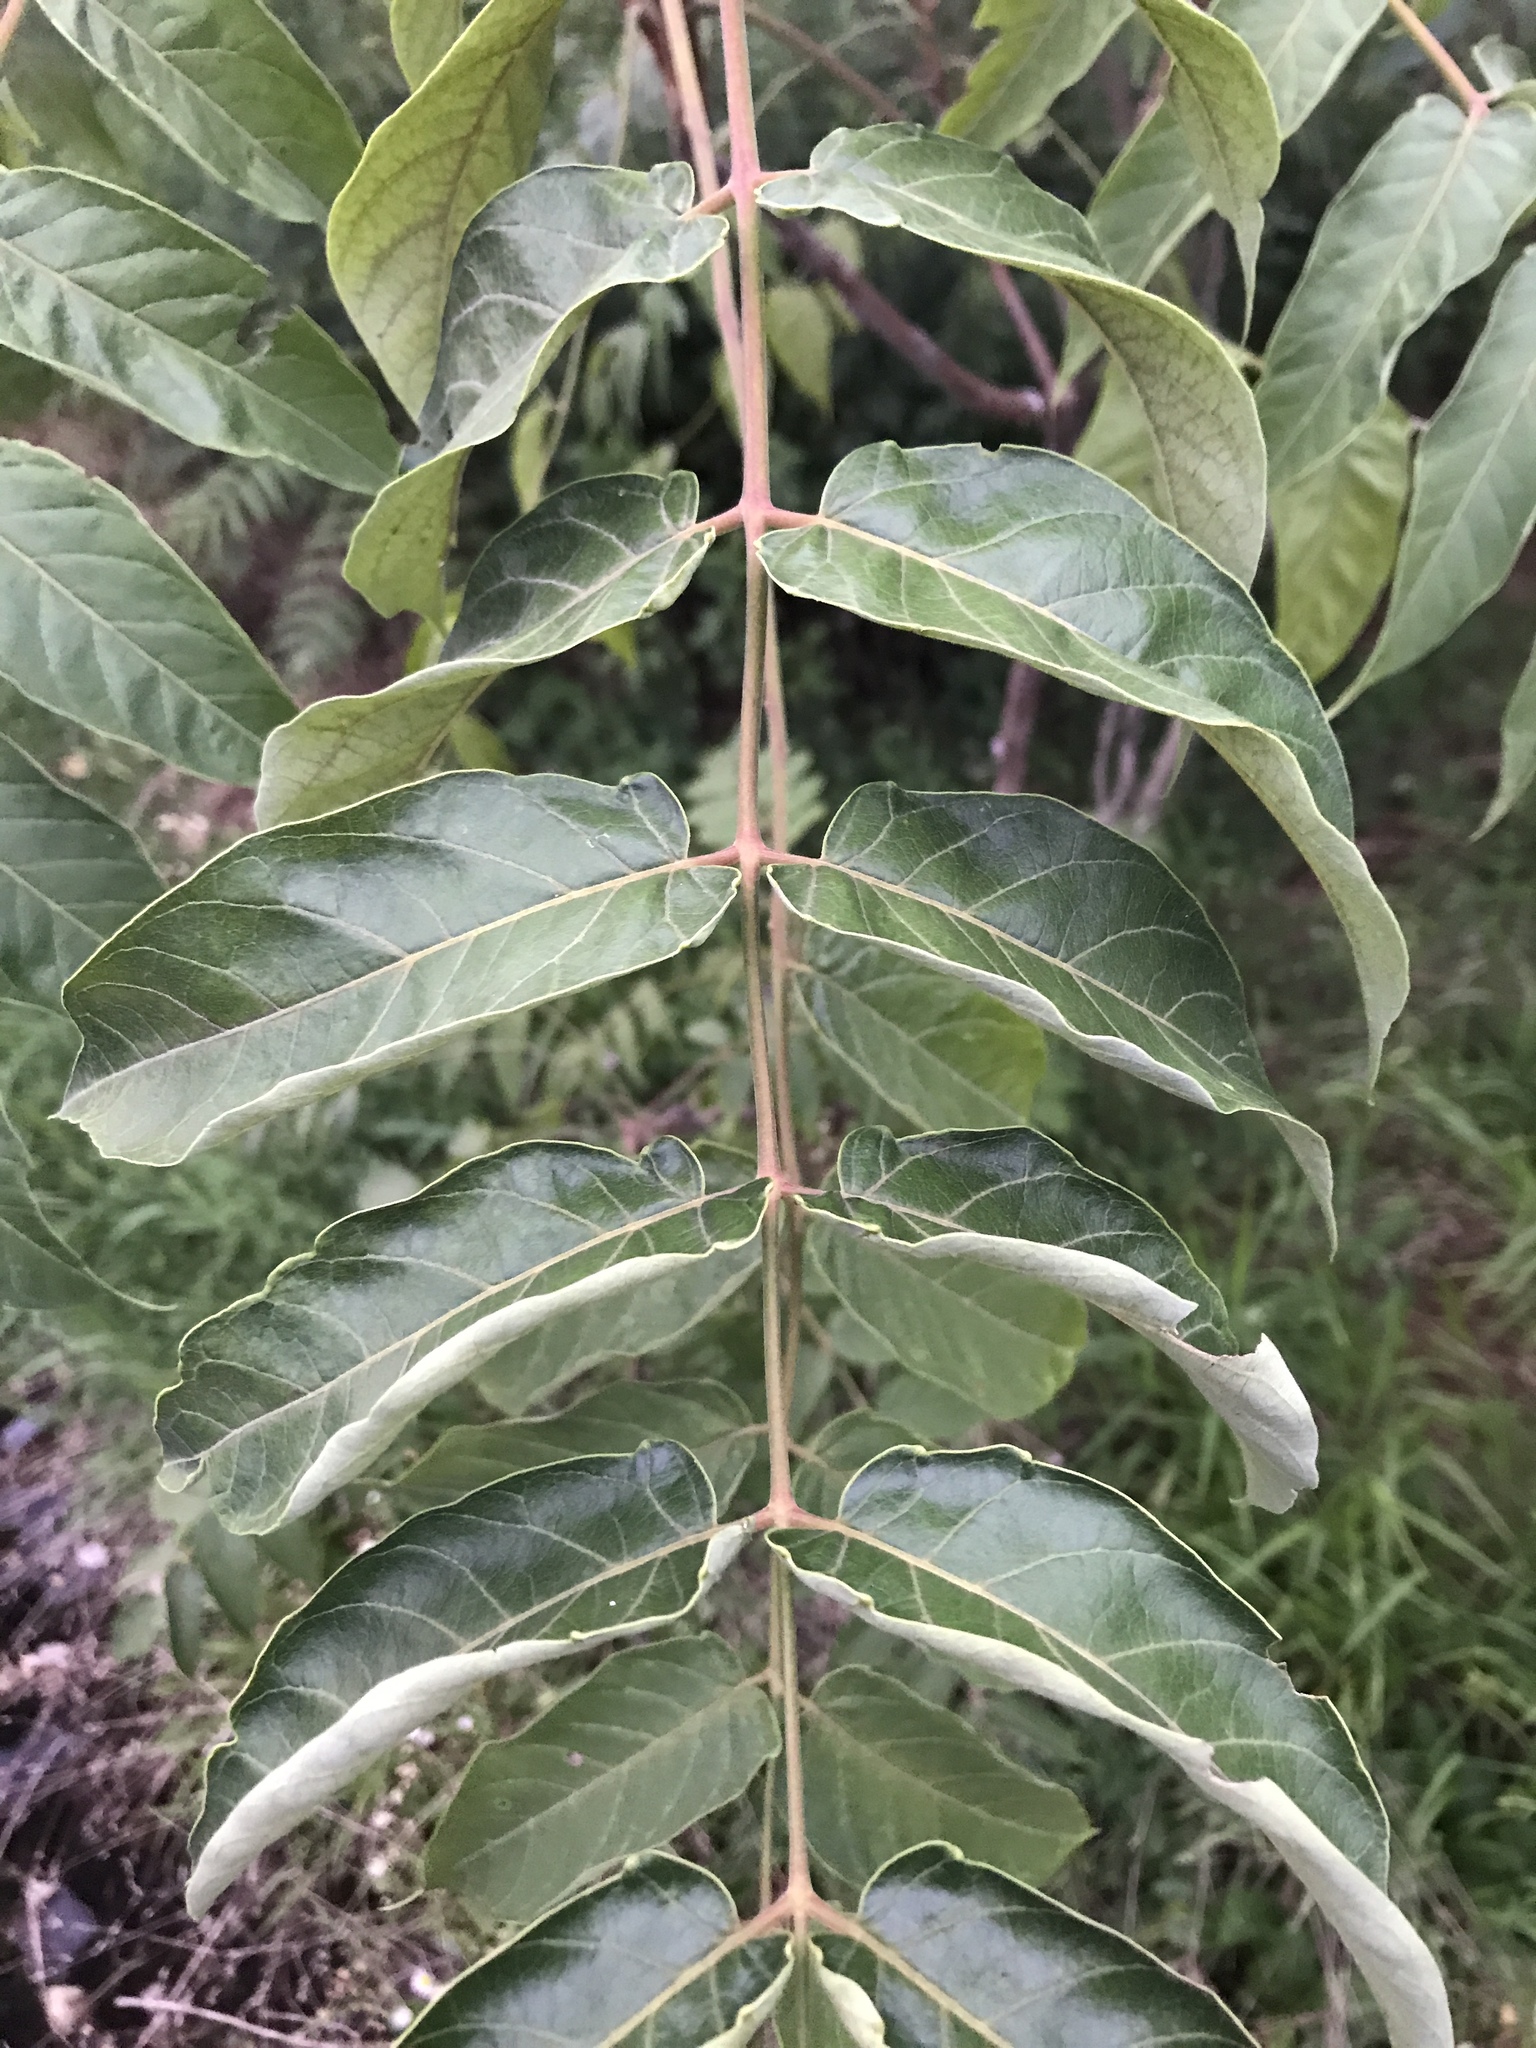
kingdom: Plantae
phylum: Tracheophyta
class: Magnoliopsida
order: Sapindales
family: Simaroubaceae
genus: Ailanthus
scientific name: Ailanthus altissima
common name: Tree-of-heaven
